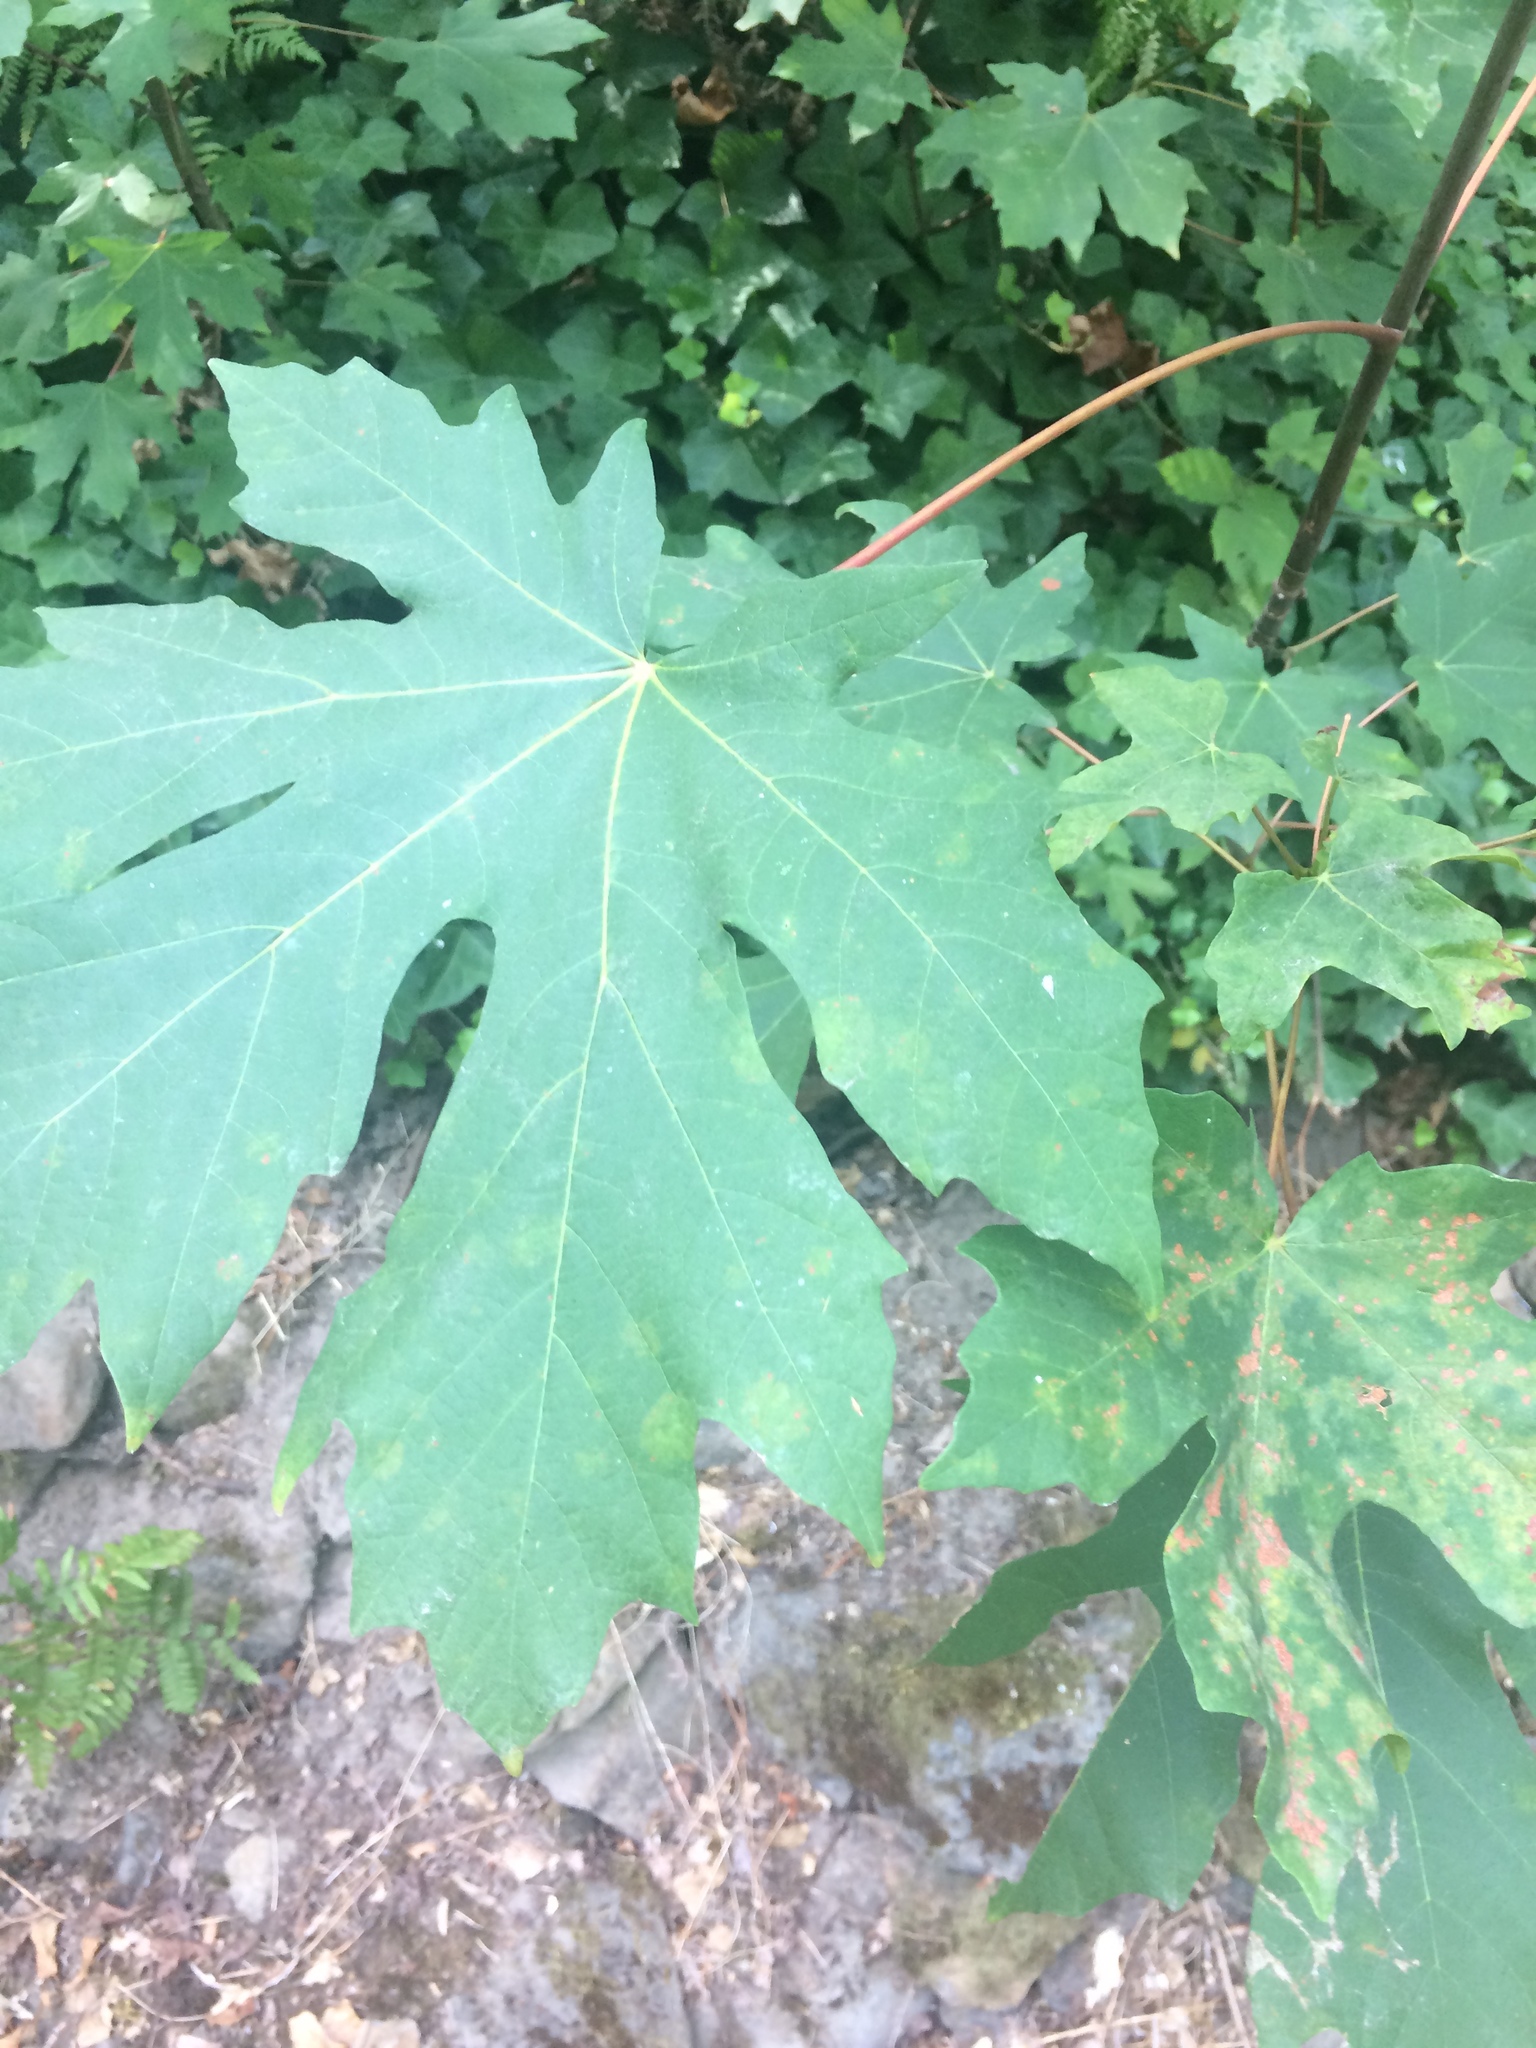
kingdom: Plantae
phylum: Tracheophyta
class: Magnoliopsida
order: Sapindales
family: Sapindaceae
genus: Acer
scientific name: Acer macrophyllum
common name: Oregon maple
